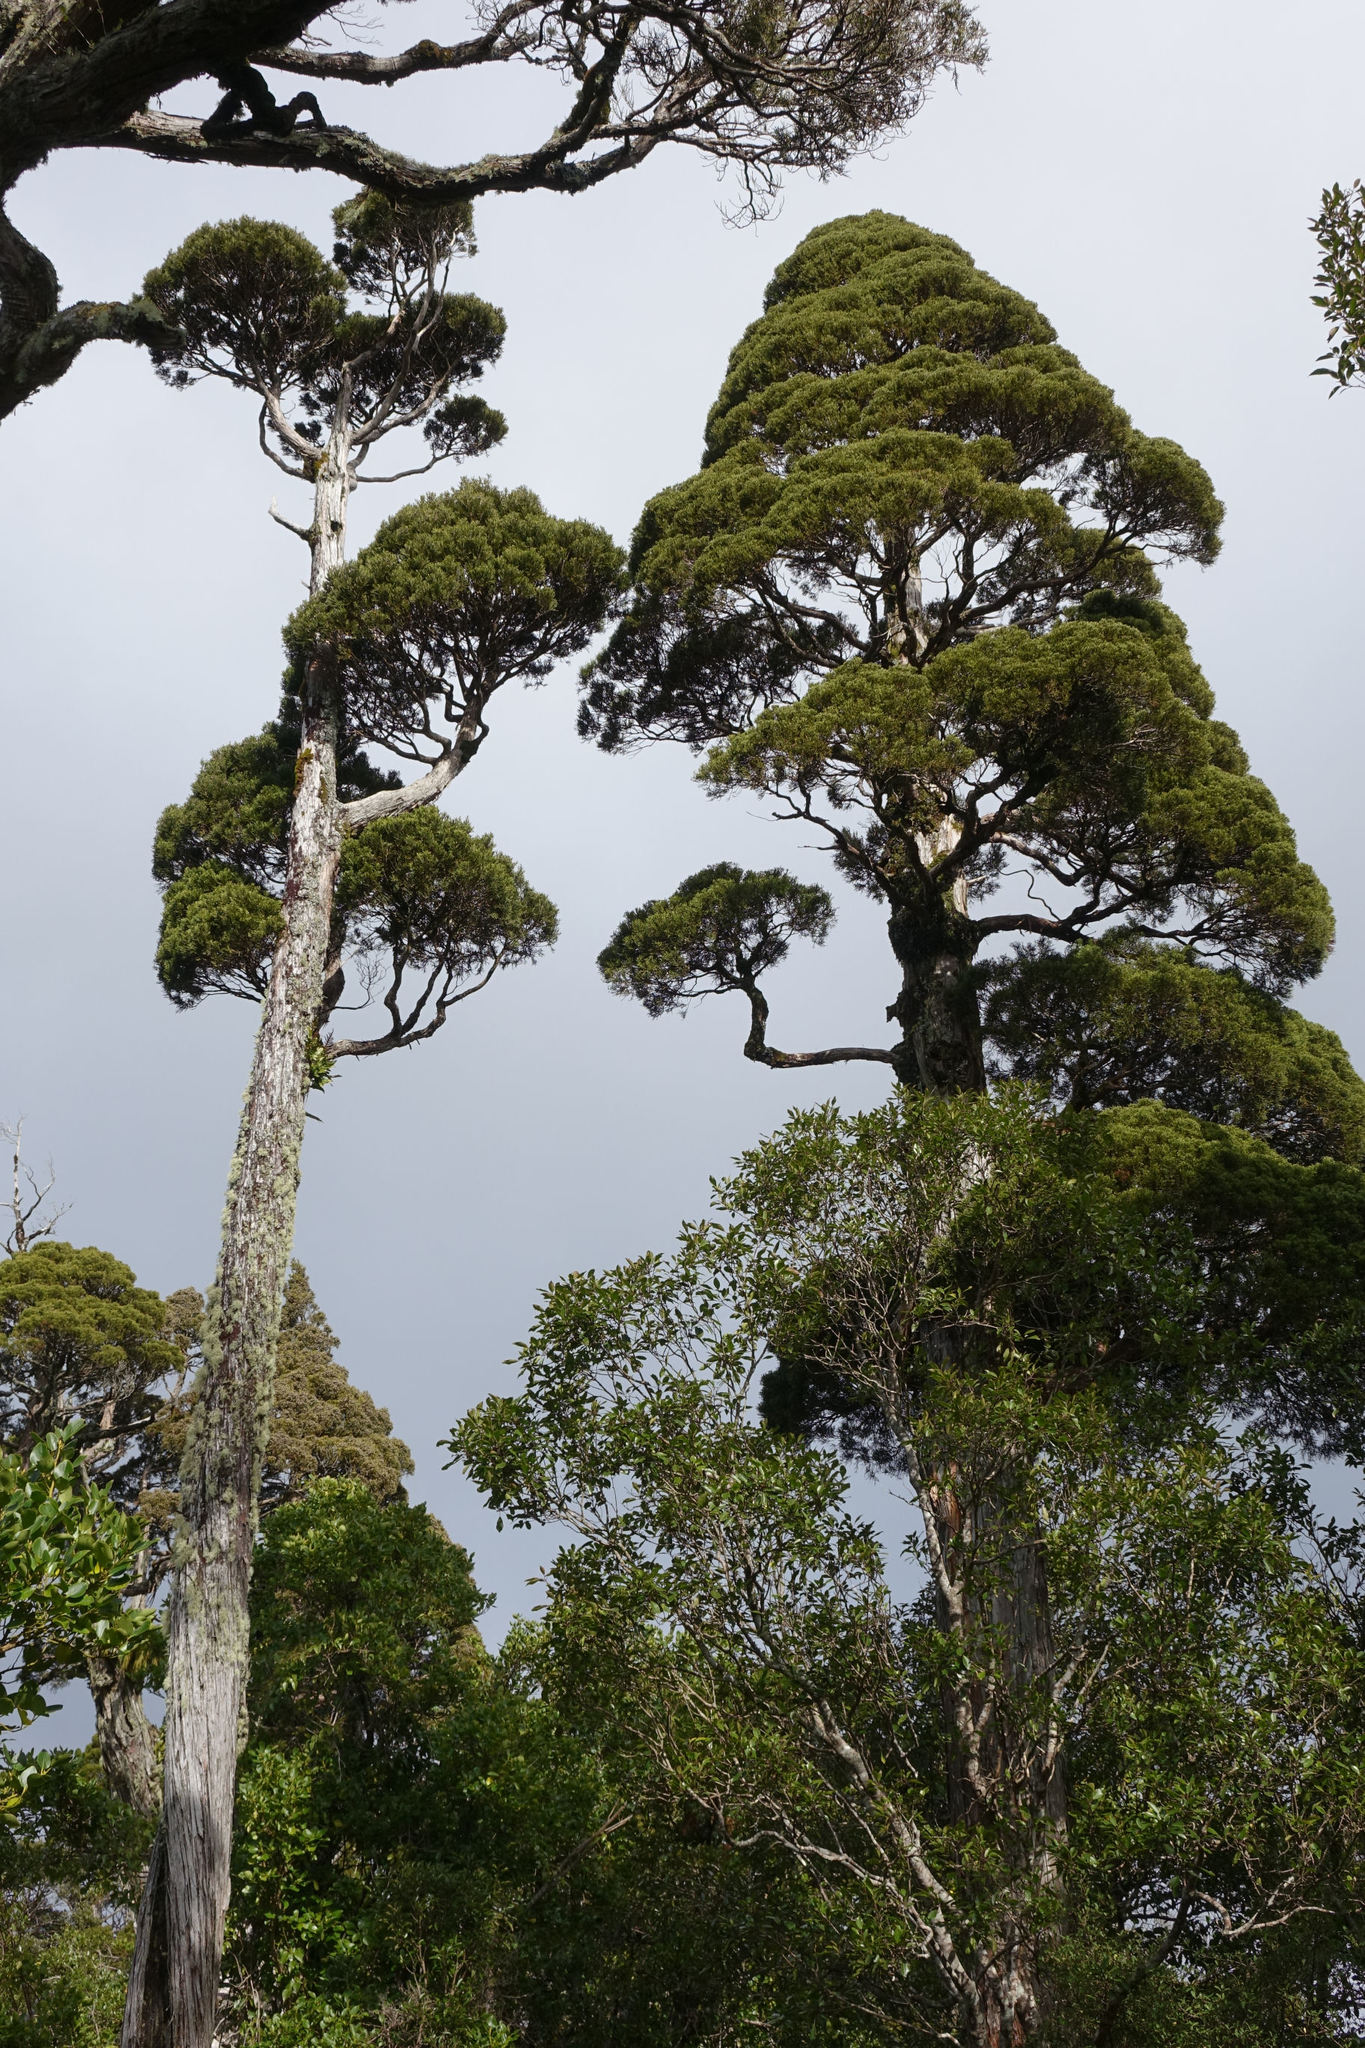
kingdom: Plantae
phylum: Tracheophyta
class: Pinopsida
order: Pinales
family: Cupressaceae
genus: Libocedrus
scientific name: Libocedrus bidwillii
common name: Cedar
